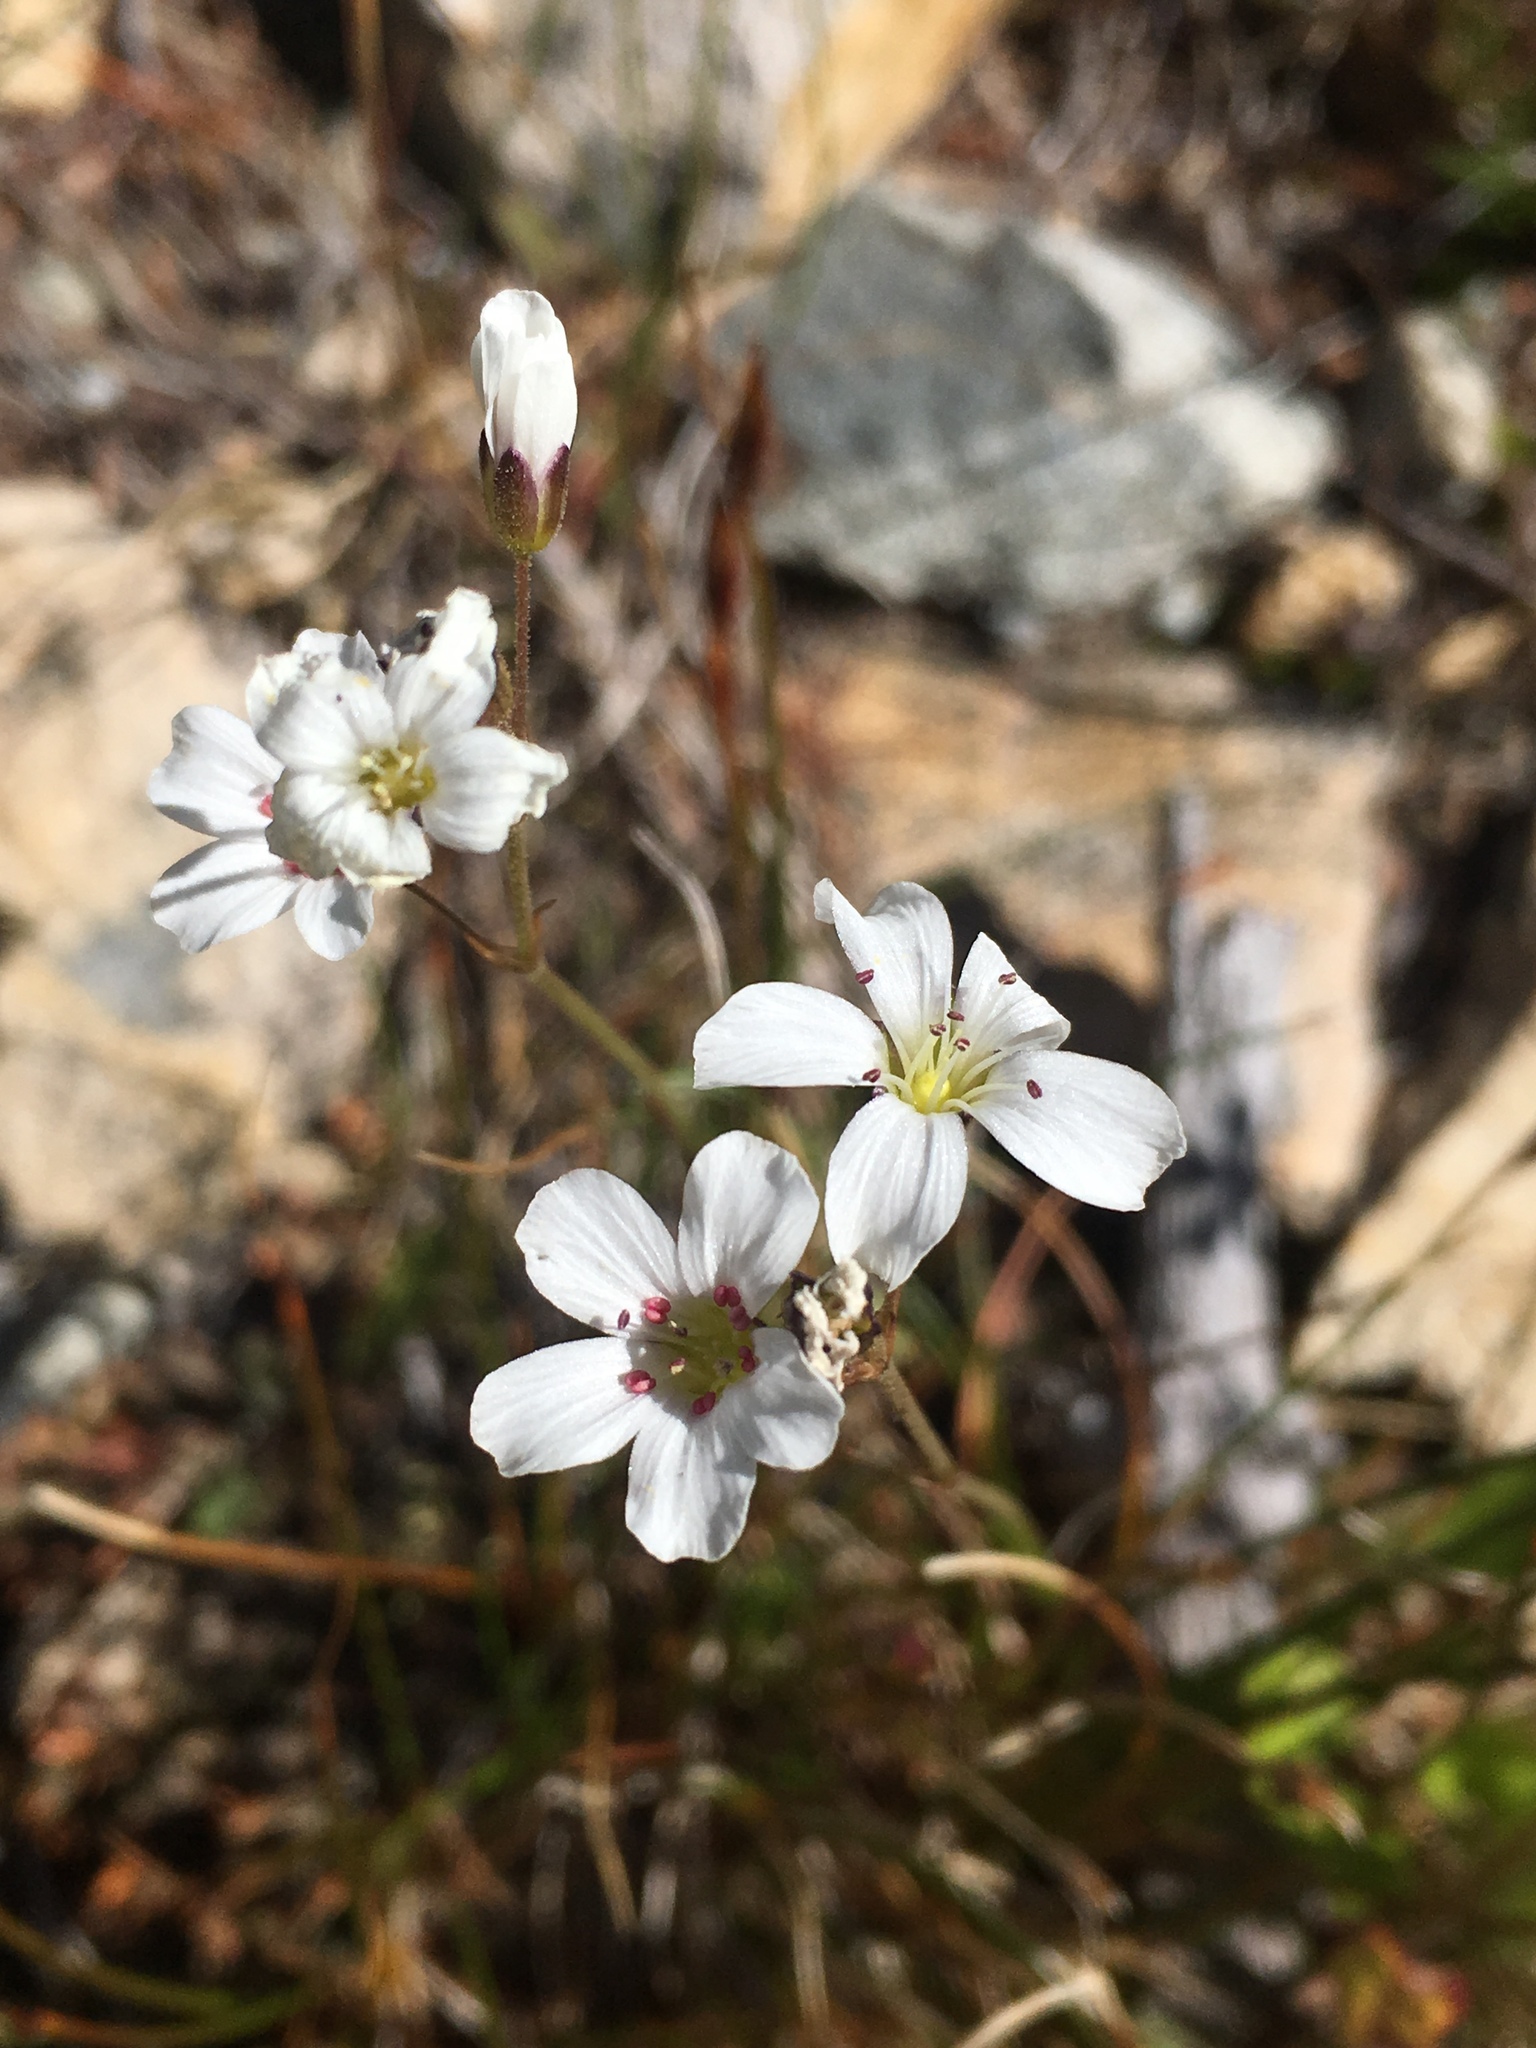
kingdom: Plantae
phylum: Tracheophyta
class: Magnoliopsida
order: Caryophyllales
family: Caryophyllaceae
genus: Eremogone
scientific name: Eremogone capillaris
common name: Slender mountain sandwort
